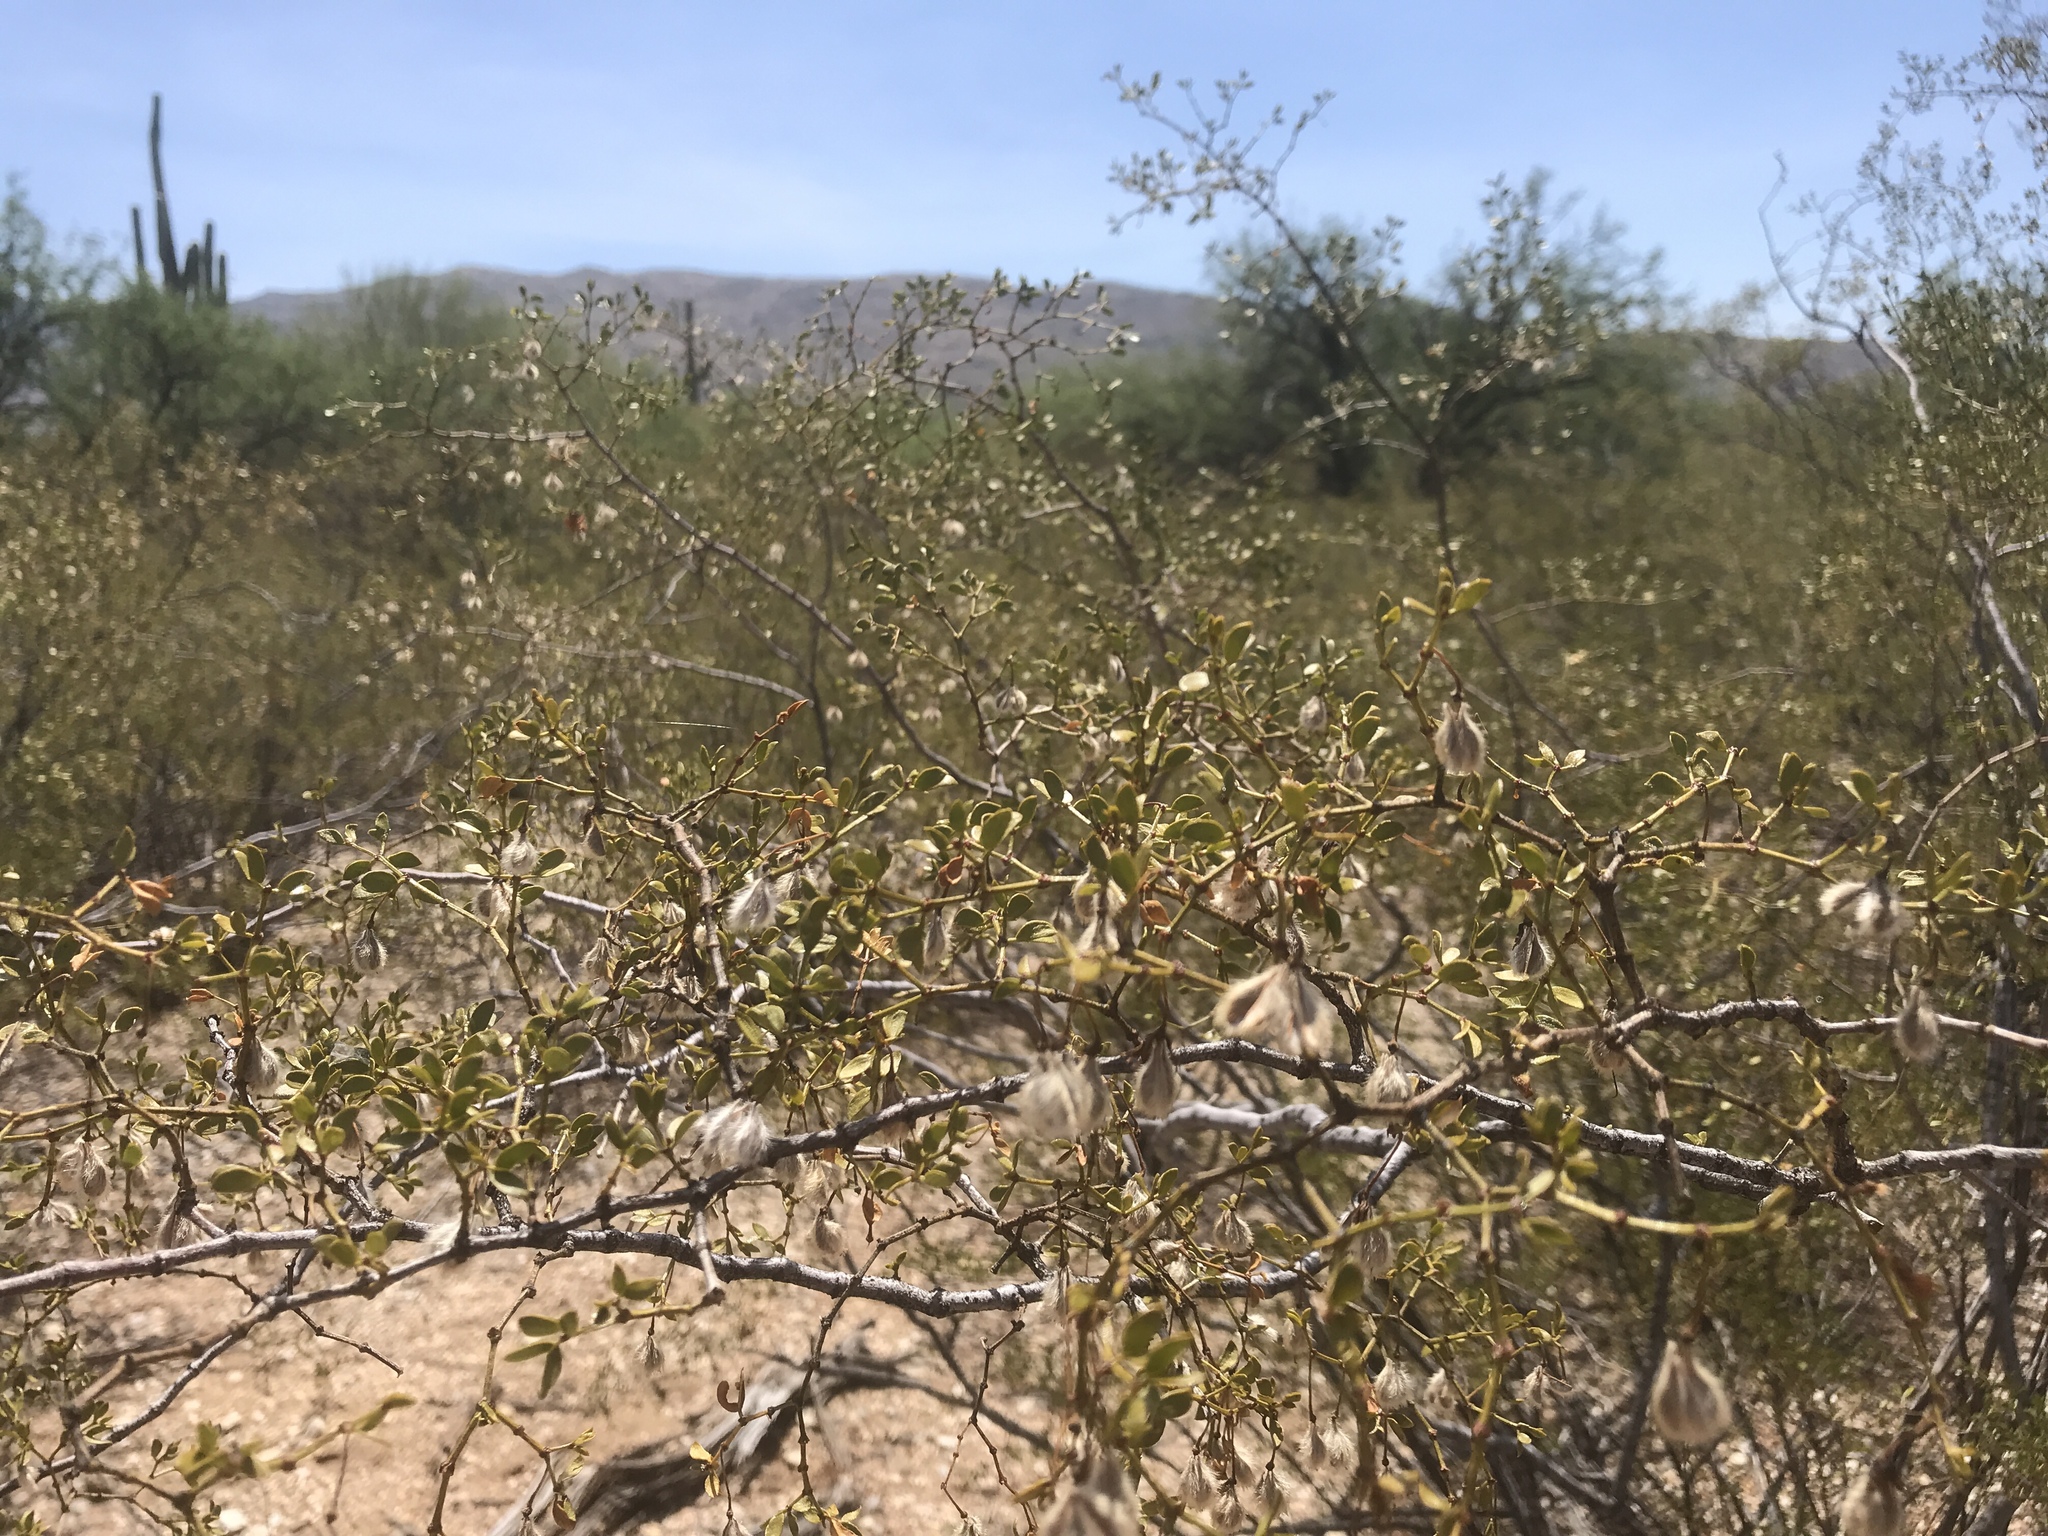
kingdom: Plantae
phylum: Tracheophyta
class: Magnoliopsida
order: Zygophyllales
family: Zygophyllaceae
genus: Larrea
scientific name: Larrea tridentata
